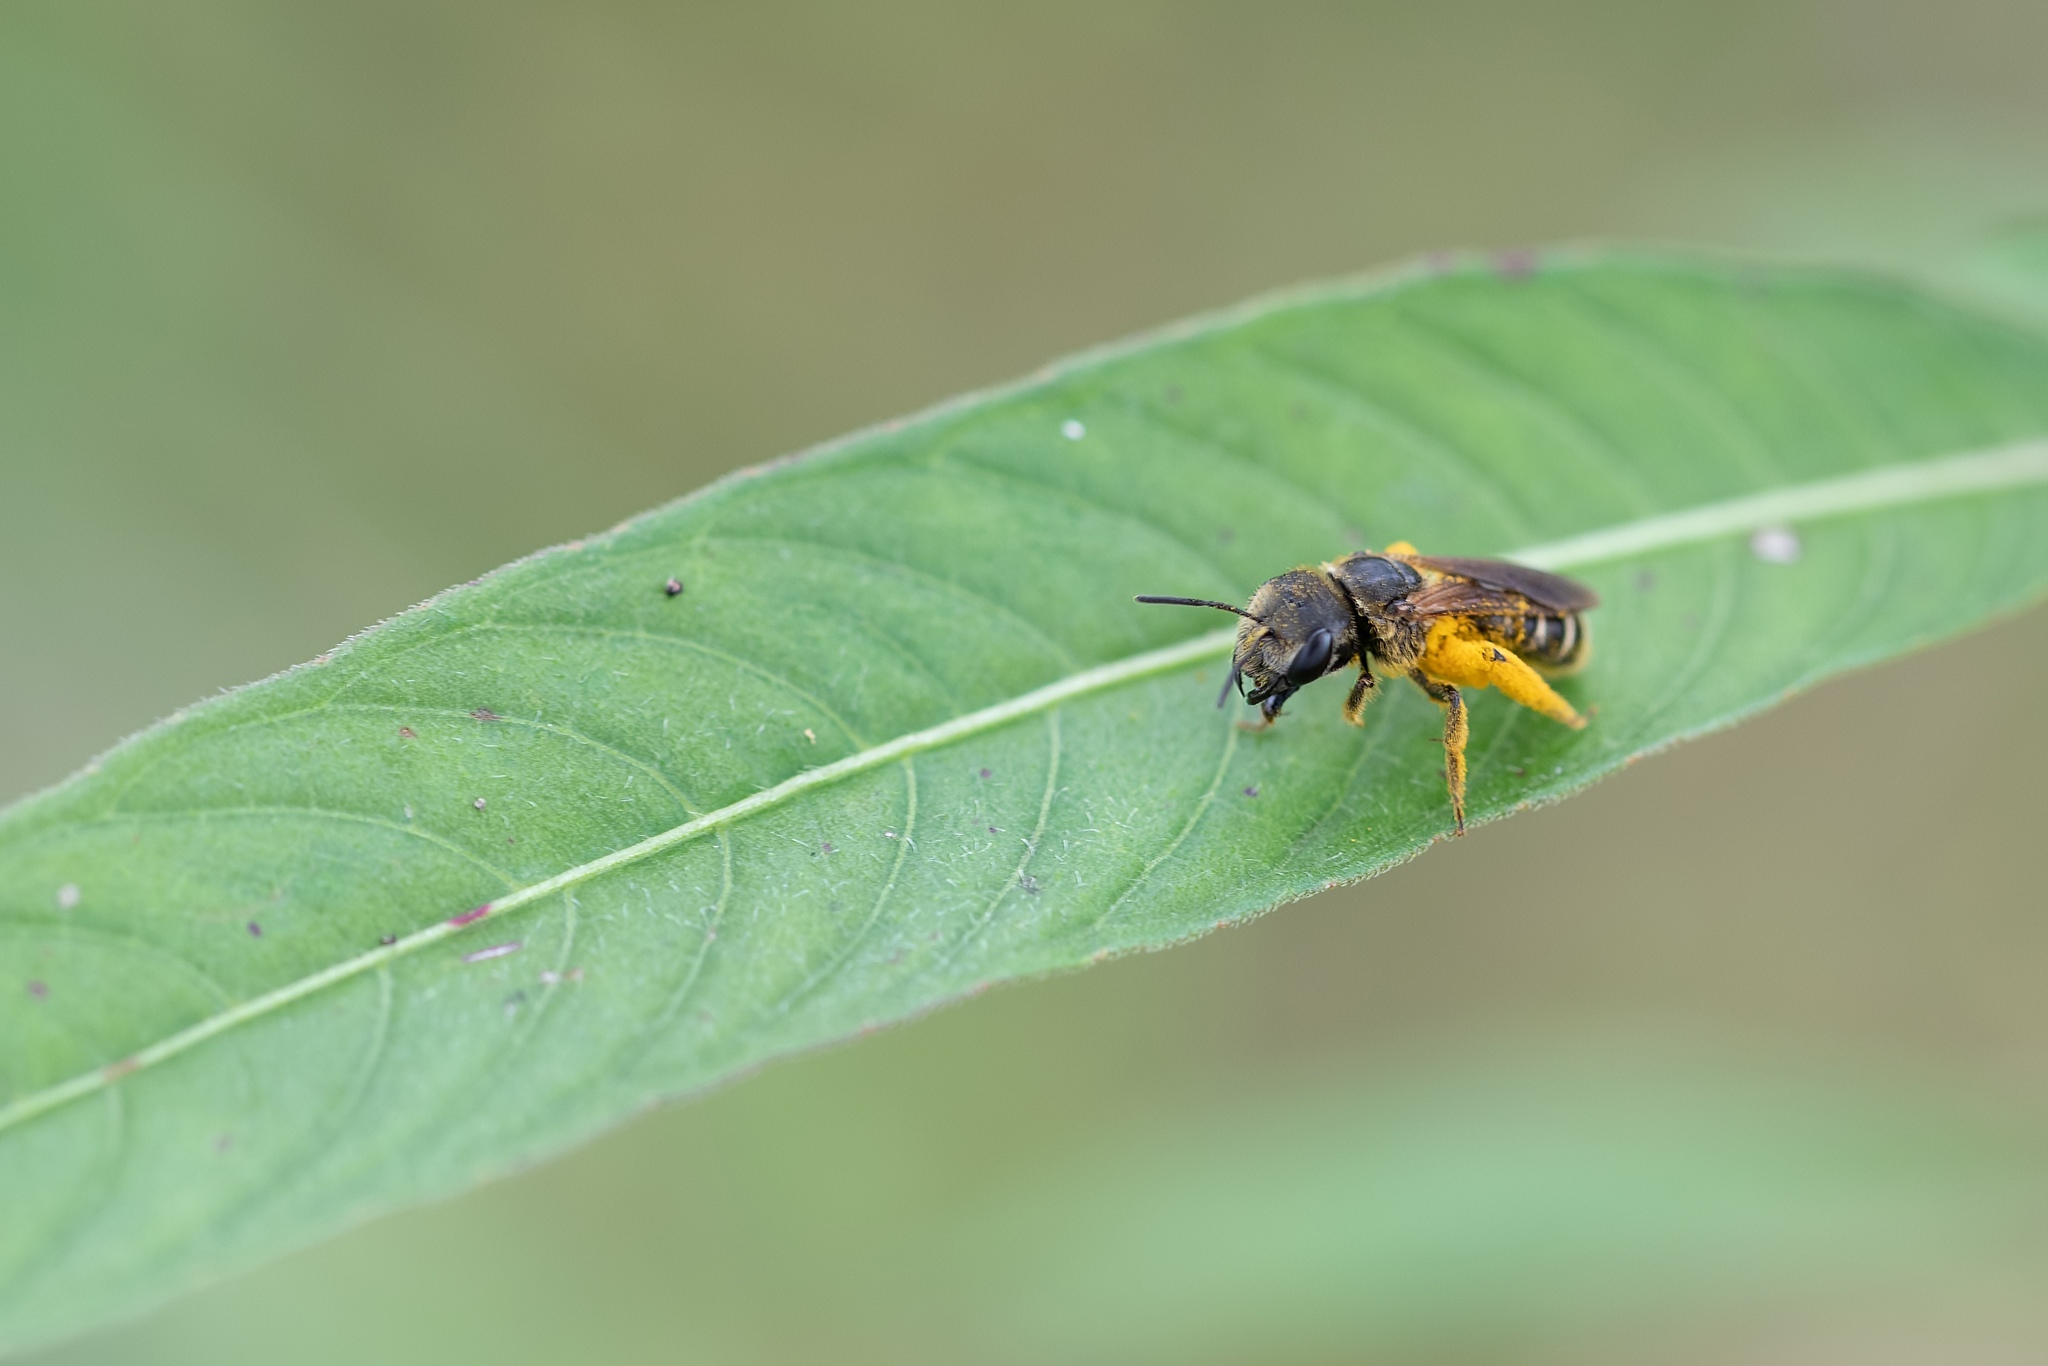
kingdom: Animalia
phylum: Arthropoda
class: Insecta
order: Hymenoptera
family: Halictidae
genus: Halictus
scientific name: Halictus poeyi
